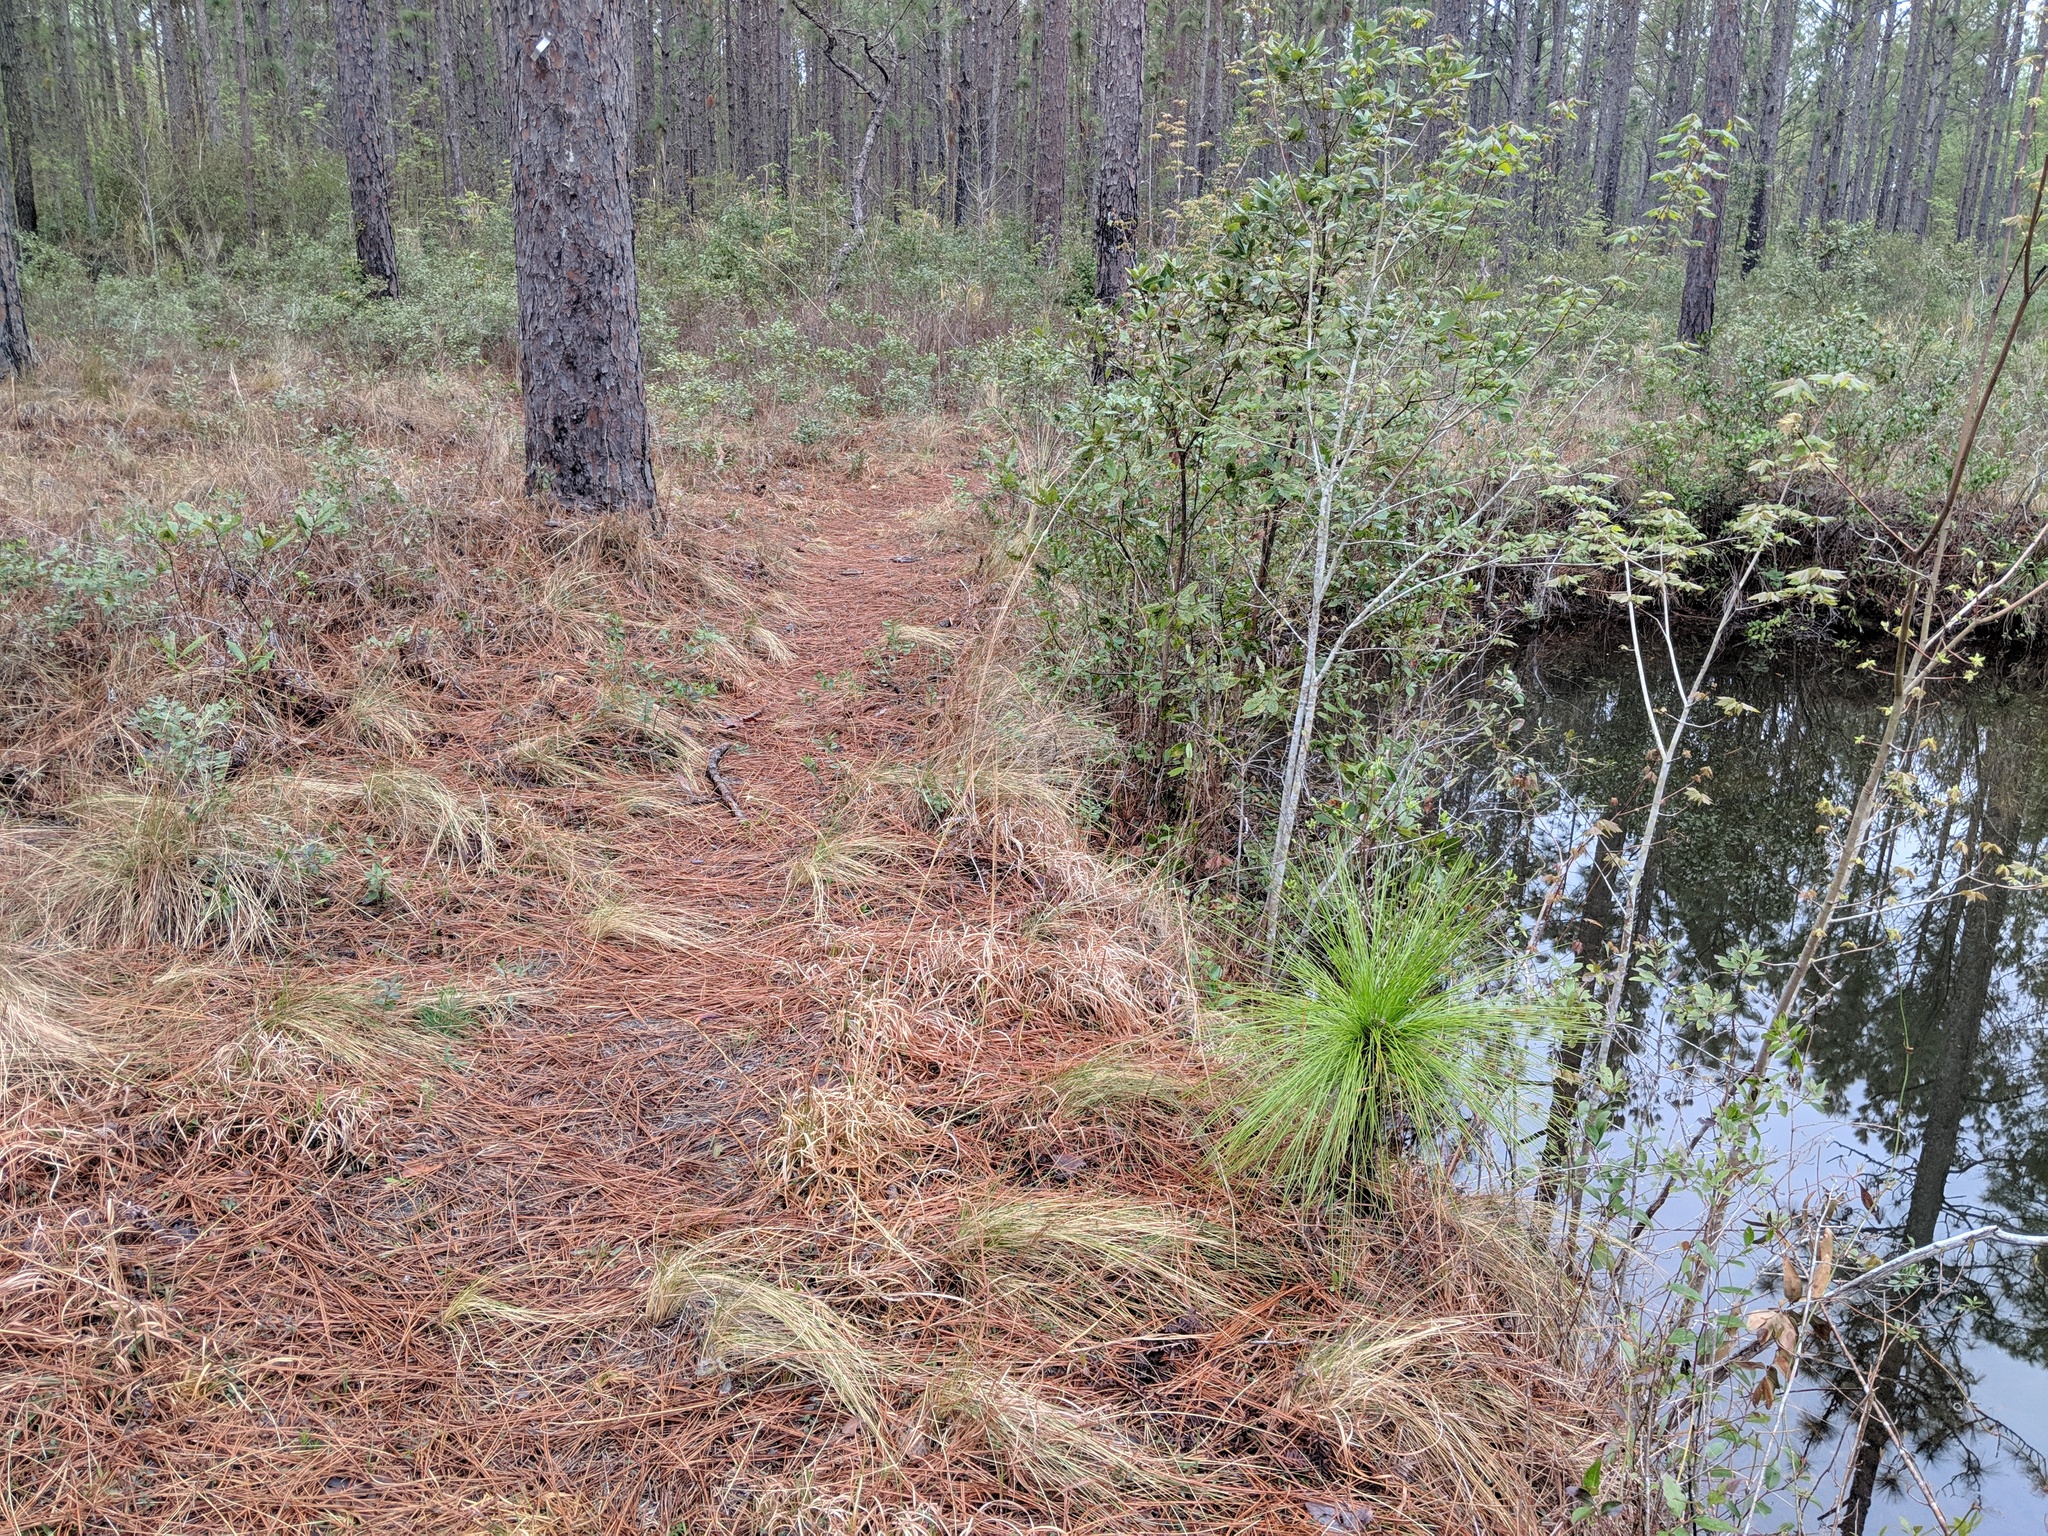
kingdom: Plantae
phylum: Tracheophyta
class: Pinopsida
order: Pinales
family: Pinaceae
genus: Pinus
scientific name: Pinus palustris
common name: Longleaf pine
